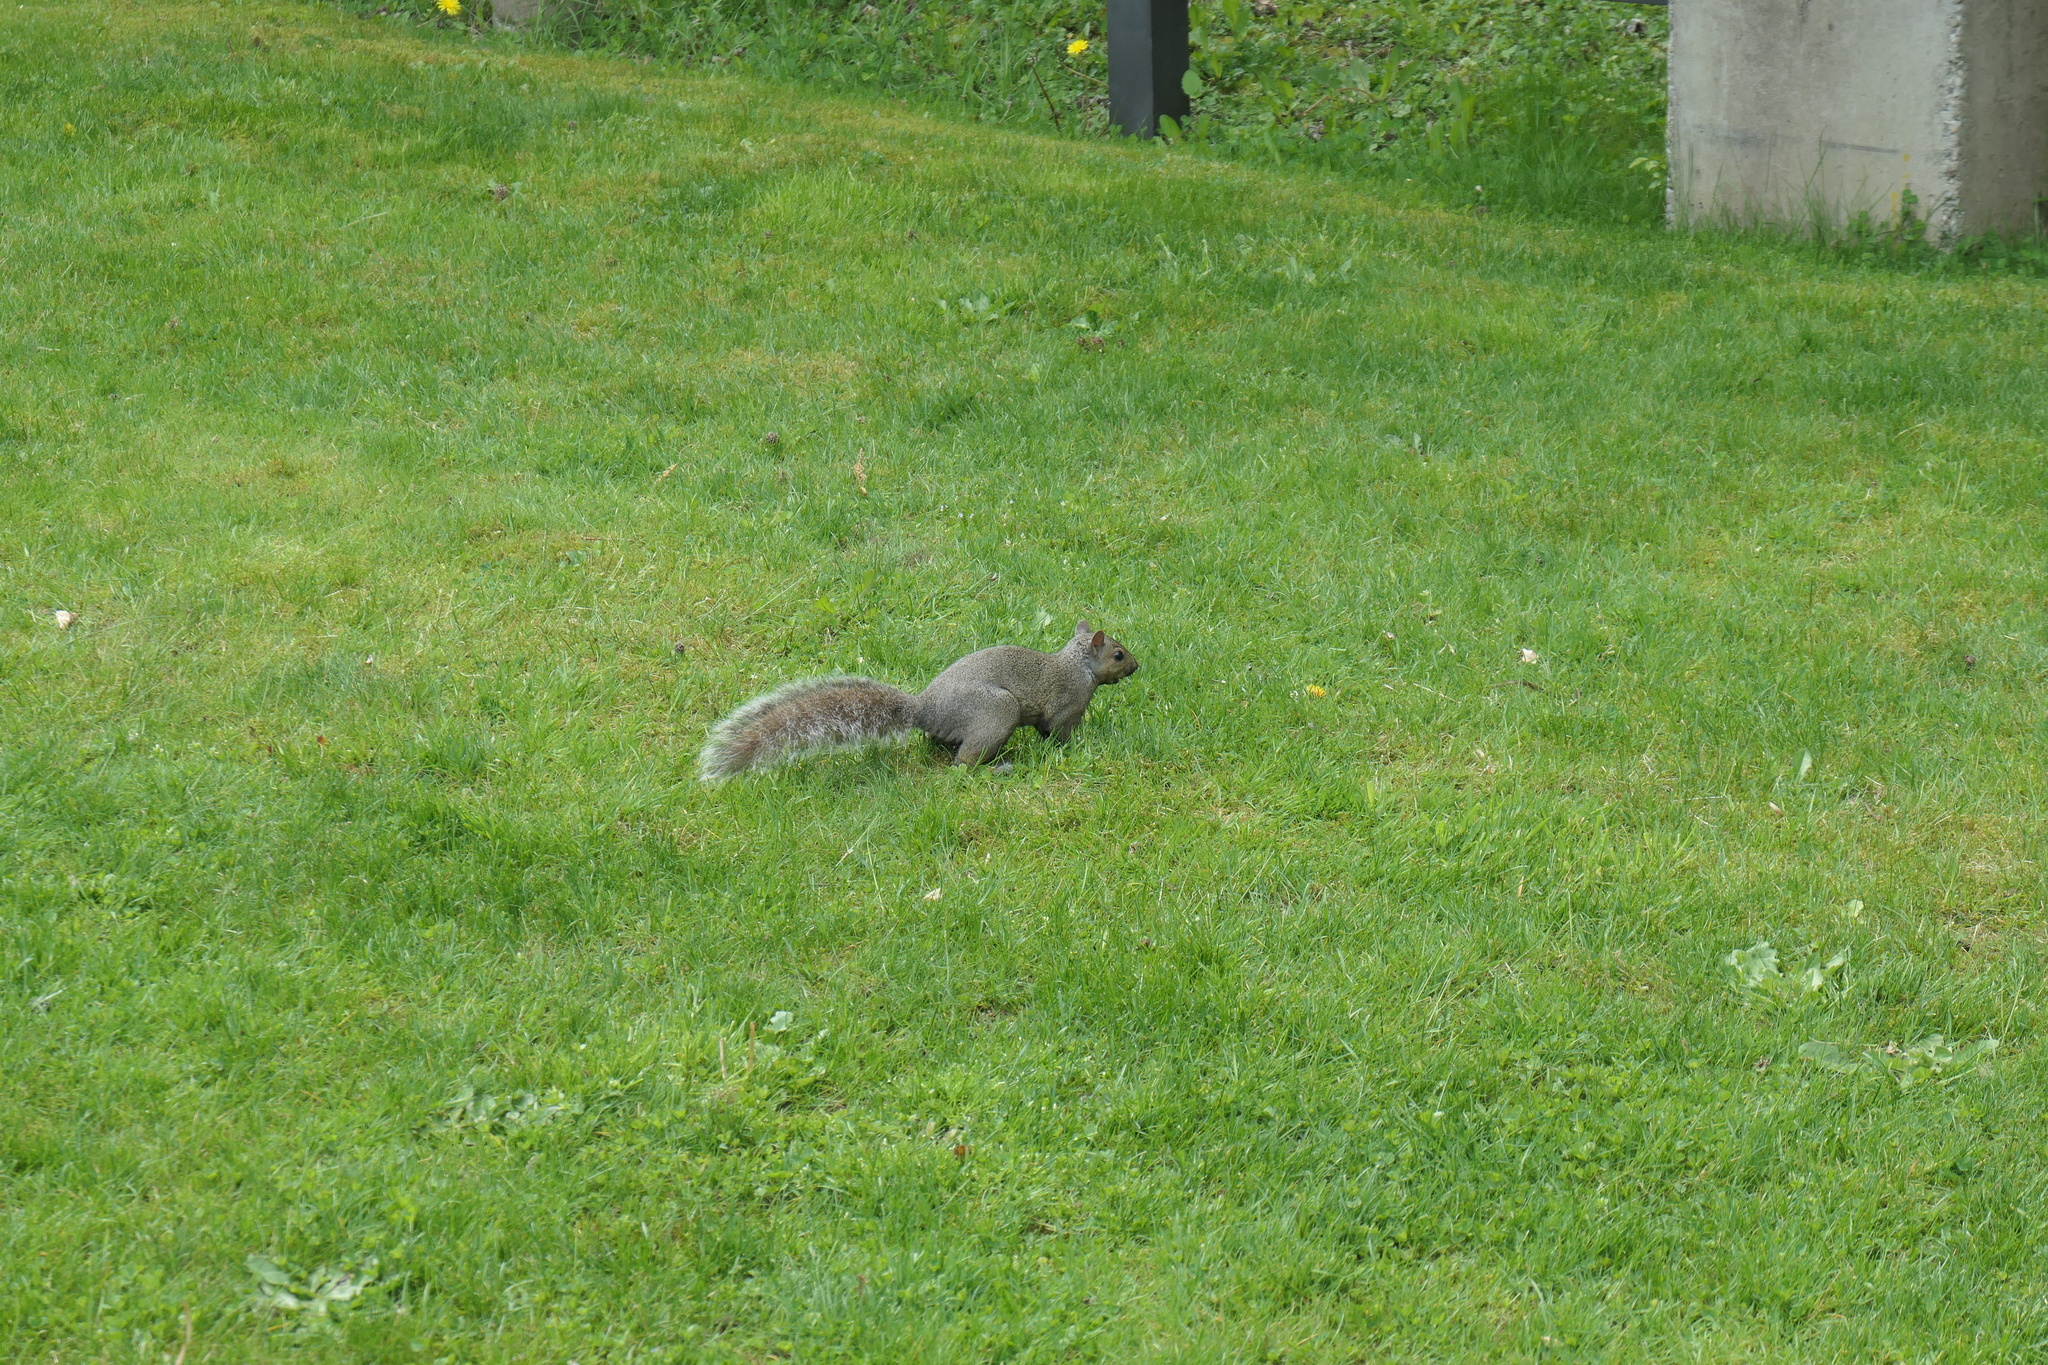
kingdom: Animalia
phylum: Chordata
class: Mammalia
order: Rodentia
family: Sciuridae
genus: Sciurus
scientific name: Sciurus carolinensis
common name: Eastern gray squirrel
